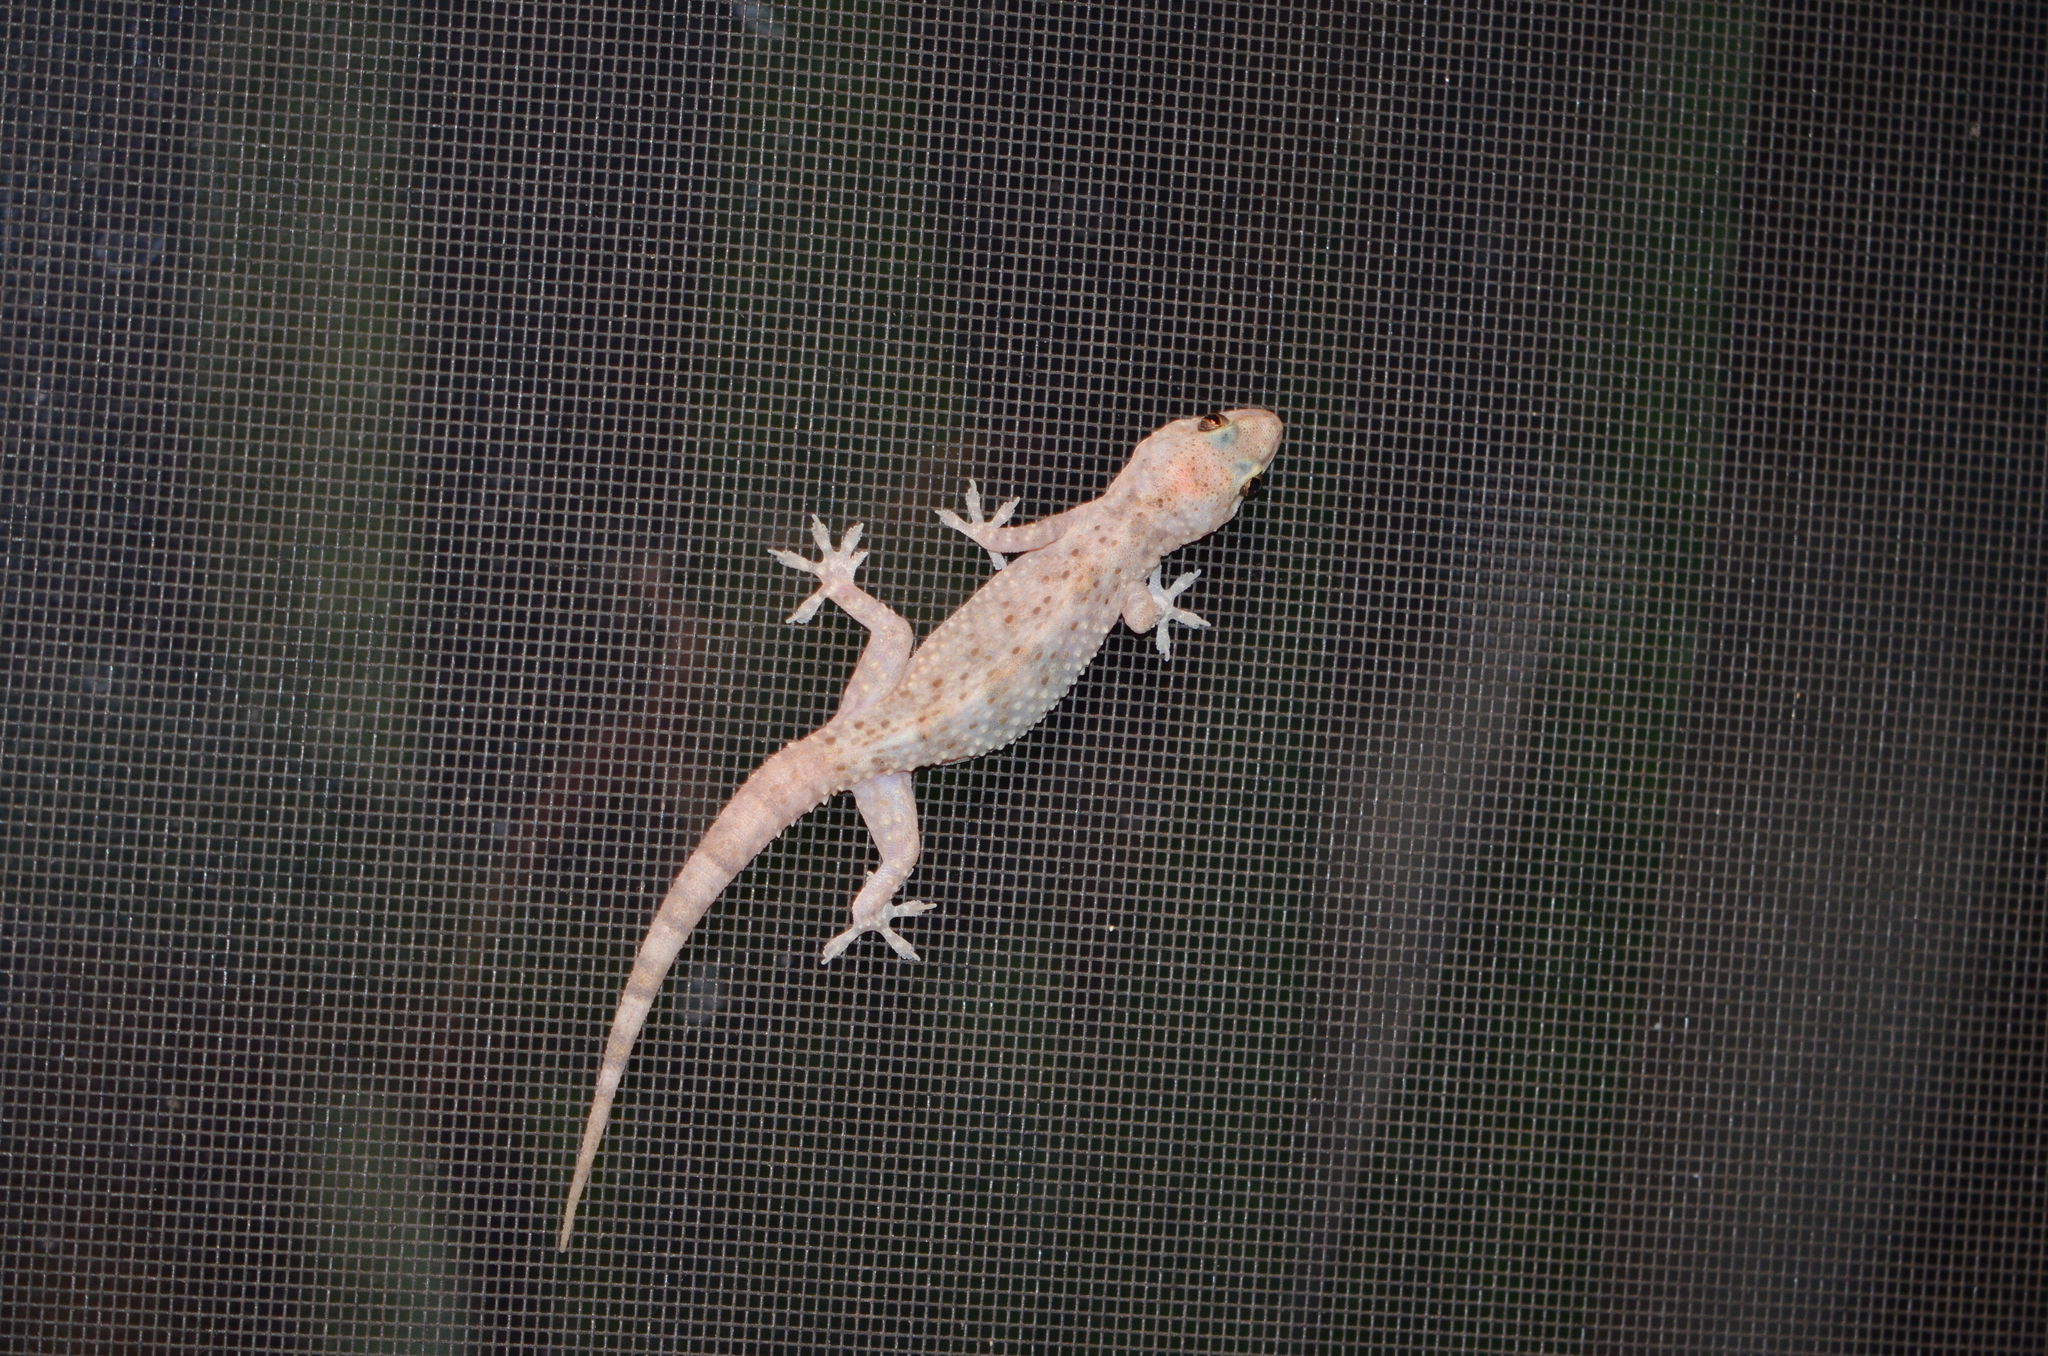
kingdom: Animalia
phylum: Chordata
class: Squamata
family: Gekkonidae
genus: Hemidactylus
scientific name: Hemidactylus turcicus
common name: Turkish gecko
